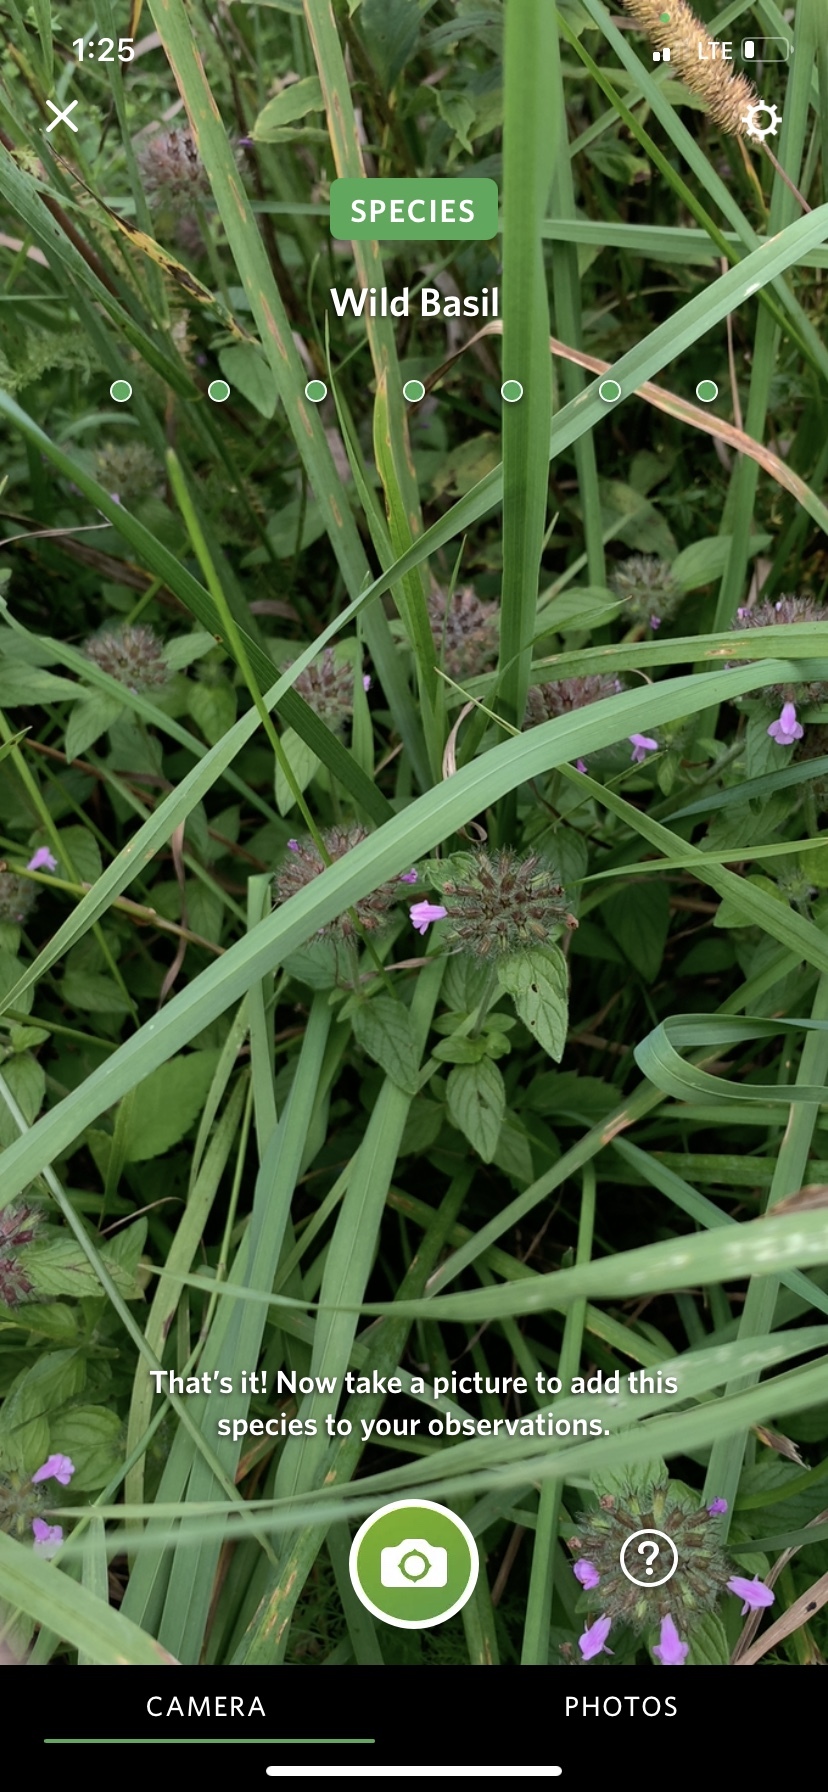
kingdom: Plantae
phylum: Tracheophyta
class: Magnoliopsida
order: Lamiales
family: Lamiaceae
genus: Clinopodium
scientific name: Clinopodium vulgare
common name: Wild basil
